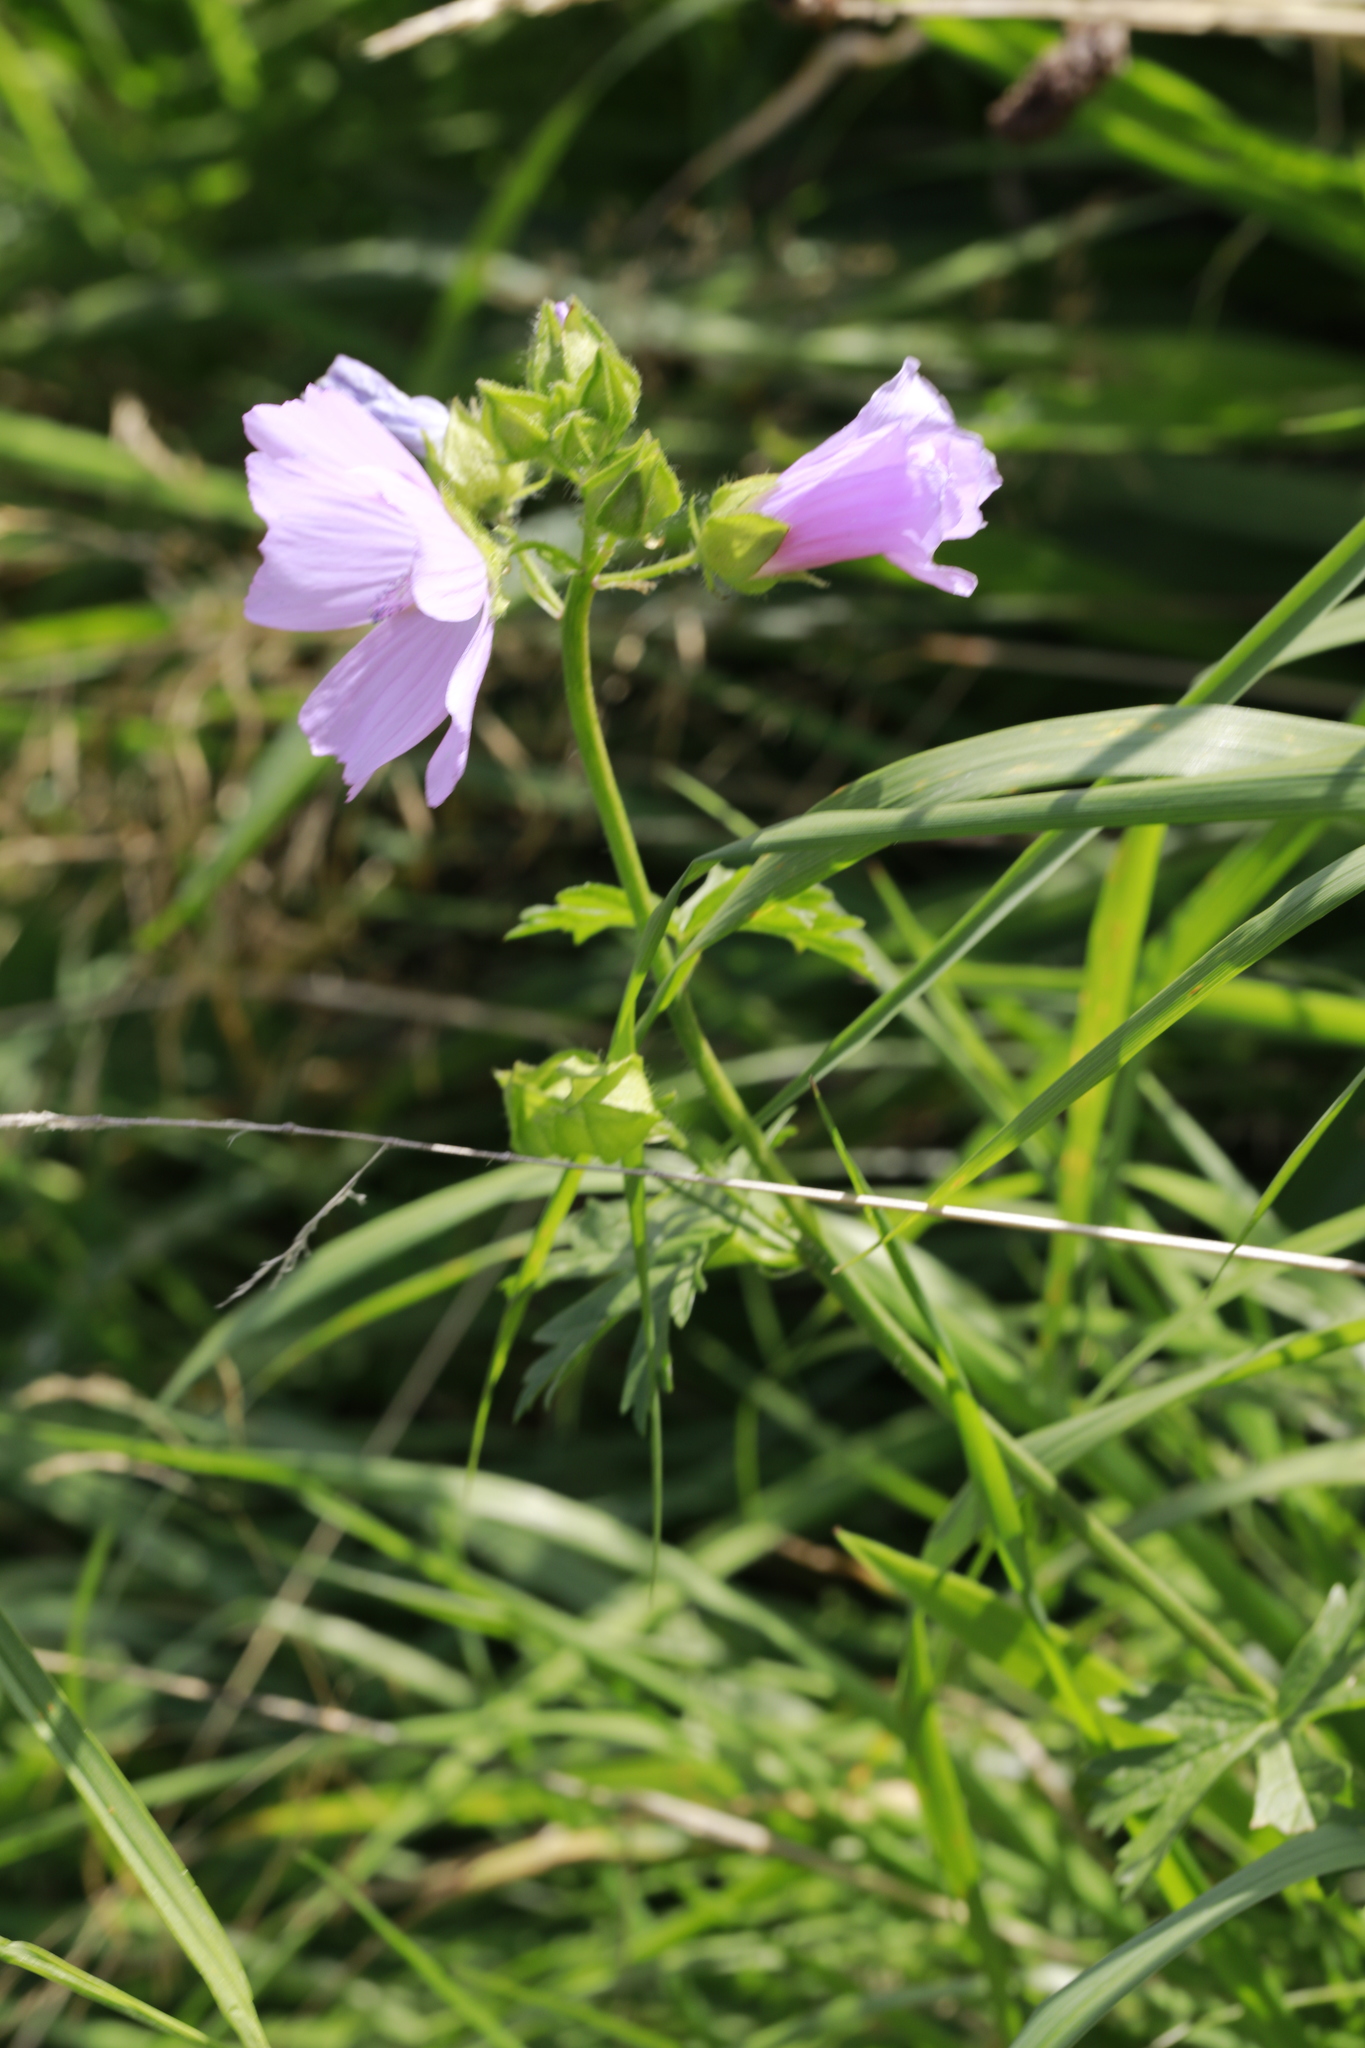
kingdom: Plantae
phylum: Tracheophyta
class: Magnoliopsida
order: Malvales
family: Malvaceae
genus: Malva
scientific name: Malva moschata
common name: Musk mallow
